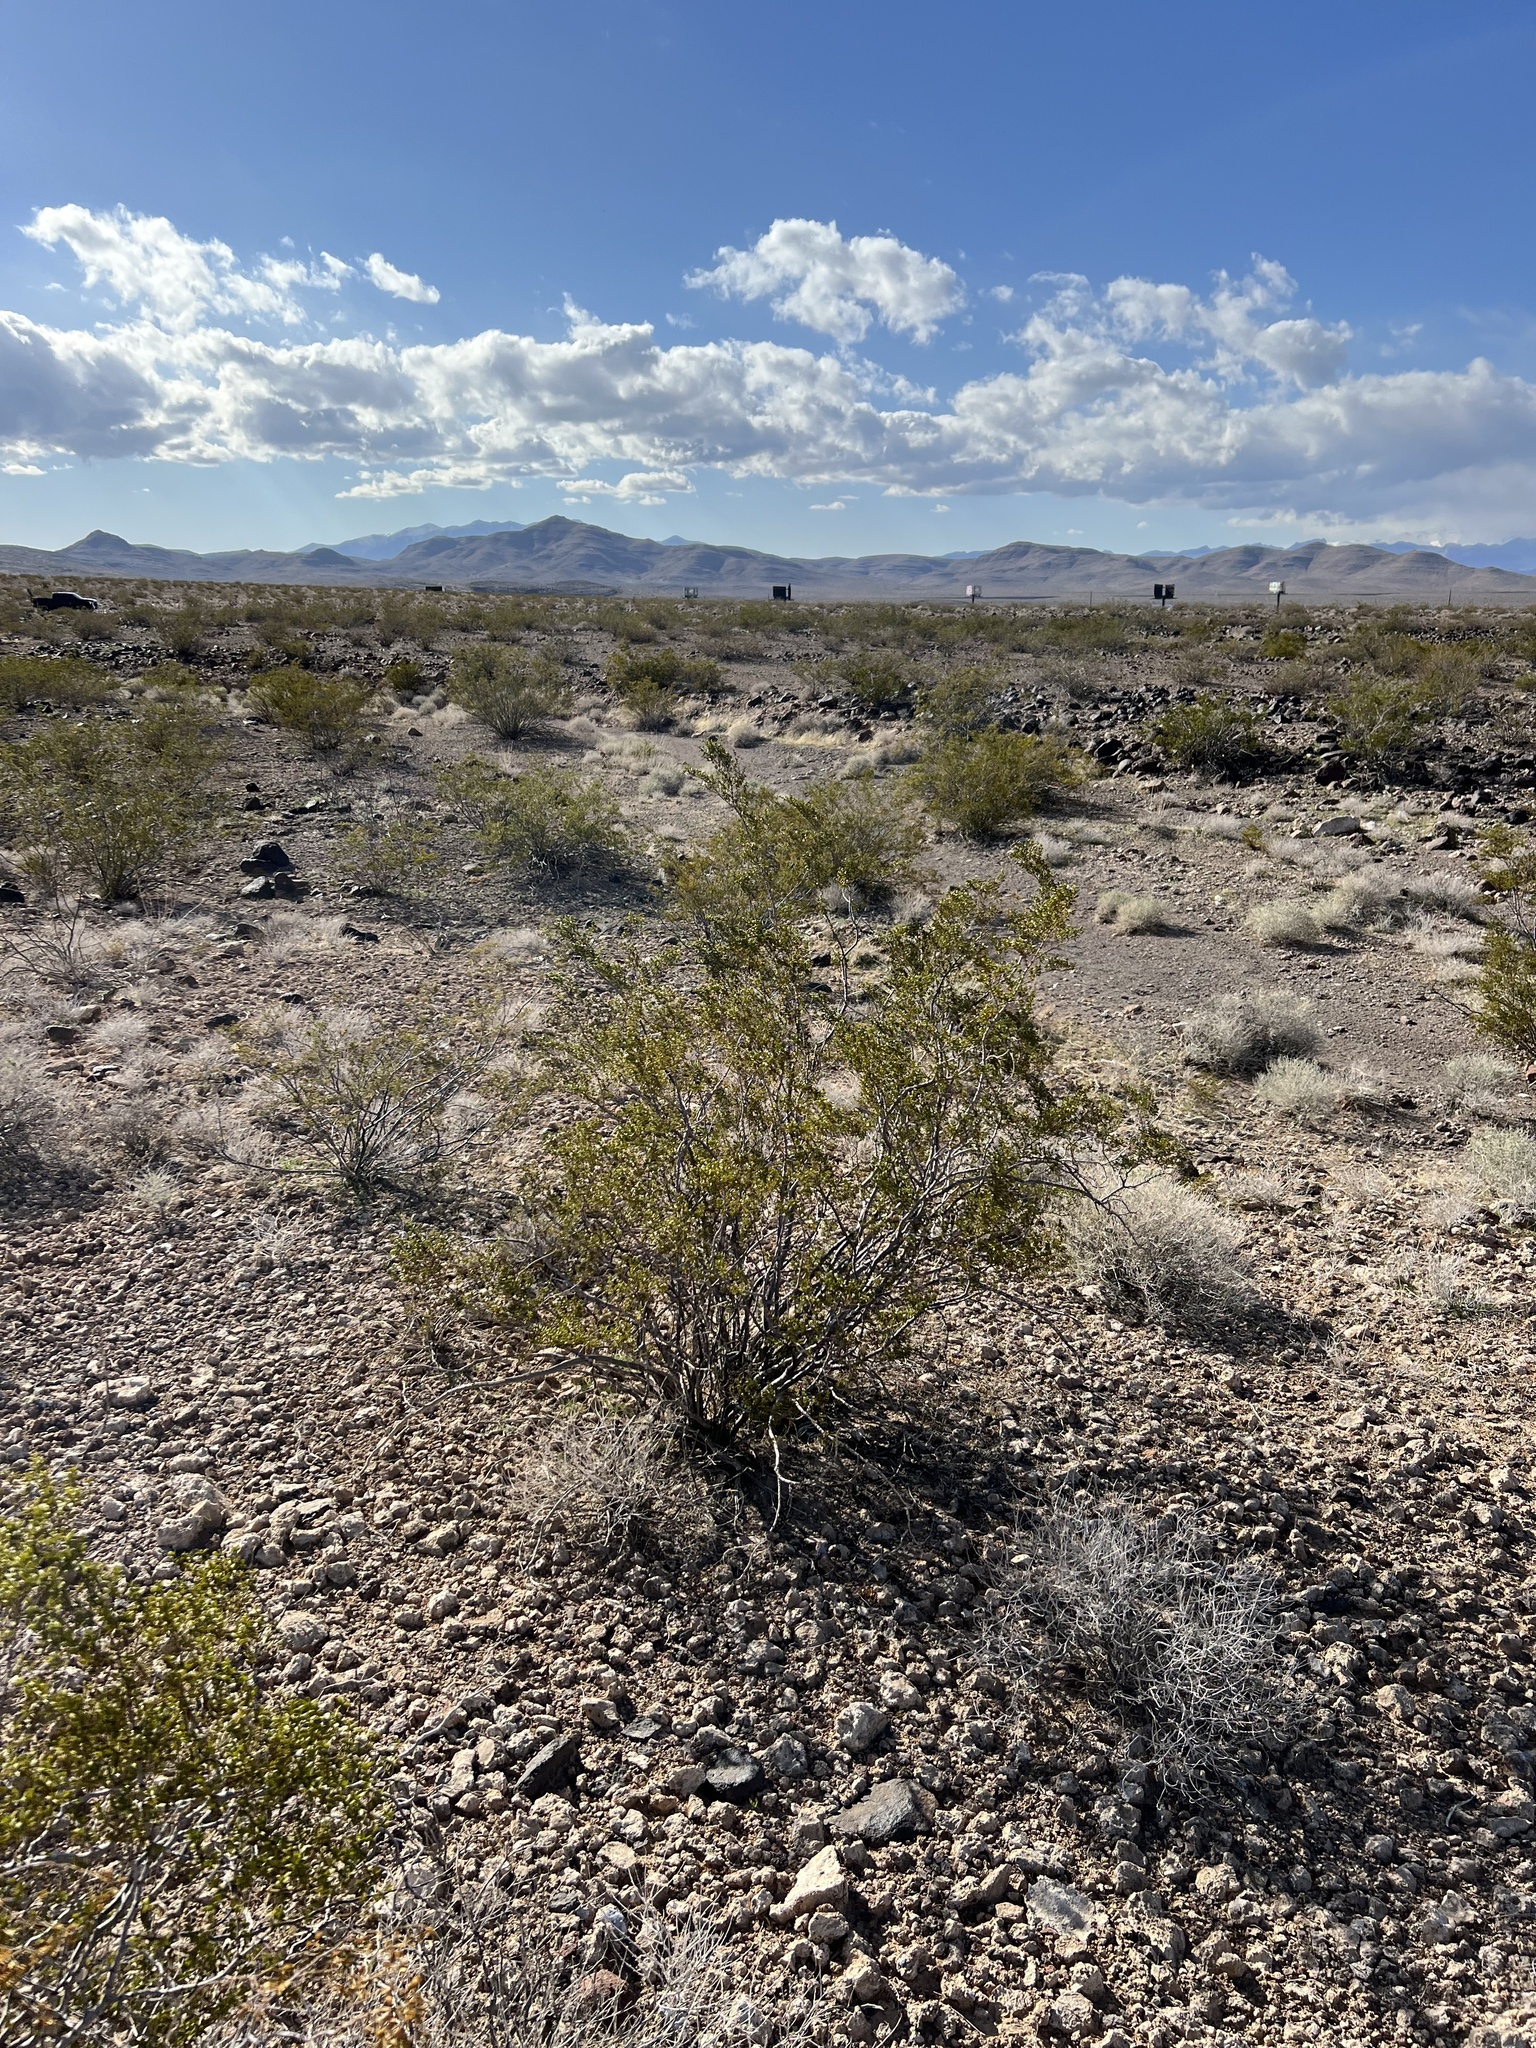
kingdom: Plantae
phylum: Tracheophyta
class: Magnoliopsida
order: Zygophyllales
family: Zygophyllaceae
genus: Larrea
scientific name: Larrea tridentata
